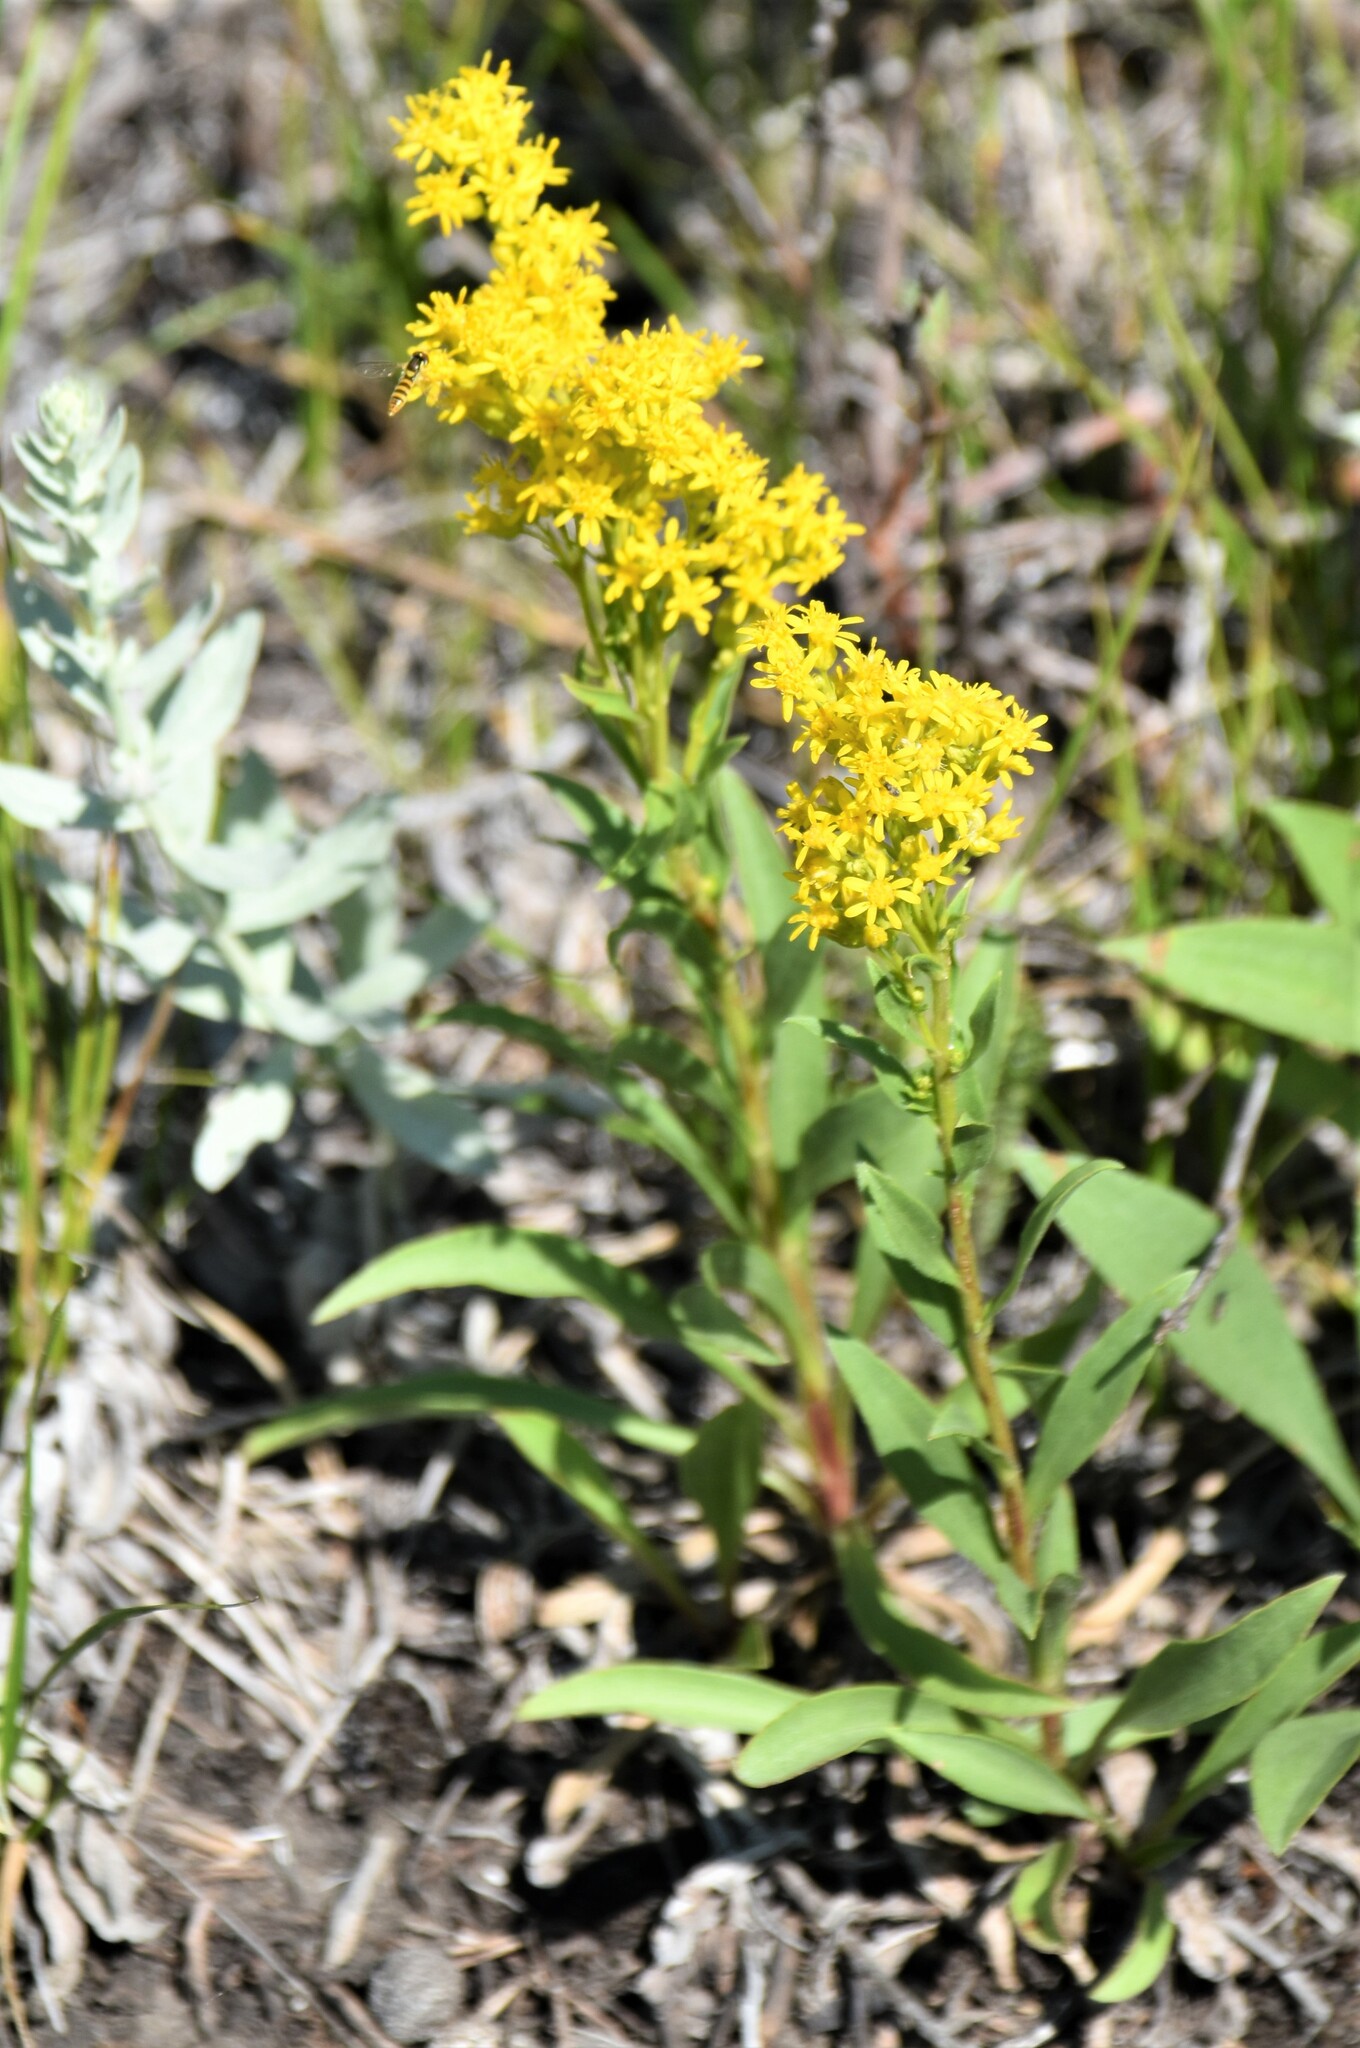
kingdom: Plantae
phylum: Tracheophyta
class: Magnoliopsida
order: Asterales
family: Asteraceae
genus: Solidago
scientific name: Solidago missouriensis
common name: Prairie goldenrod
